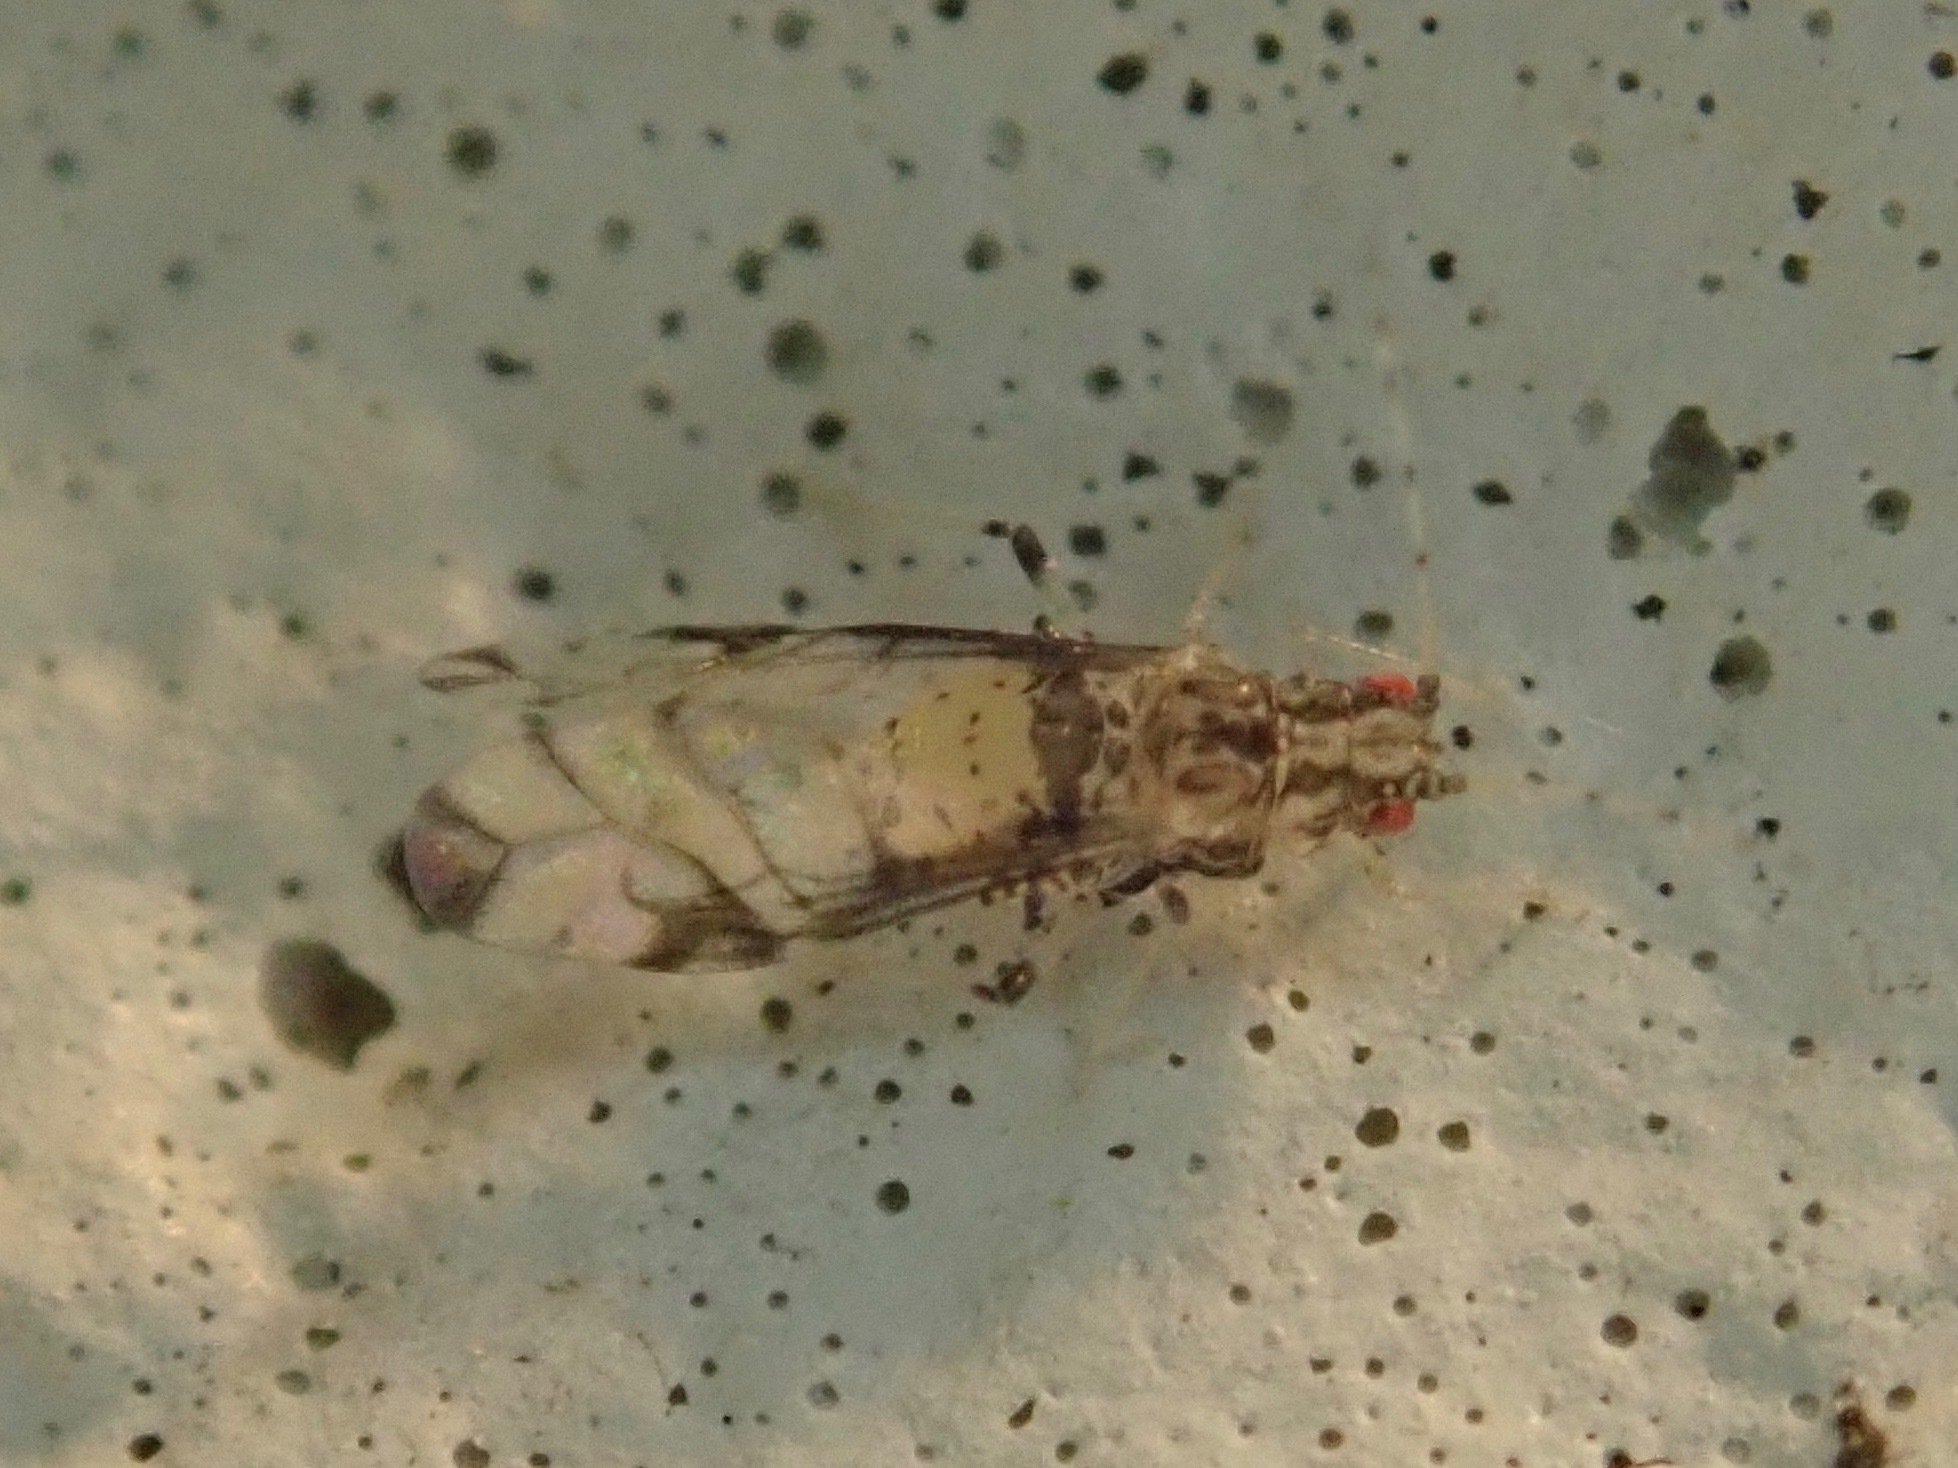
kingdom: Animalia
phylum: Arthropoda
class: Insecta
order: Hemiptera
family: Aphididae
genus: Sarucallis
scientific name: Sarucallis kahawaluokalani
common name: Crapemyrtle aphid
